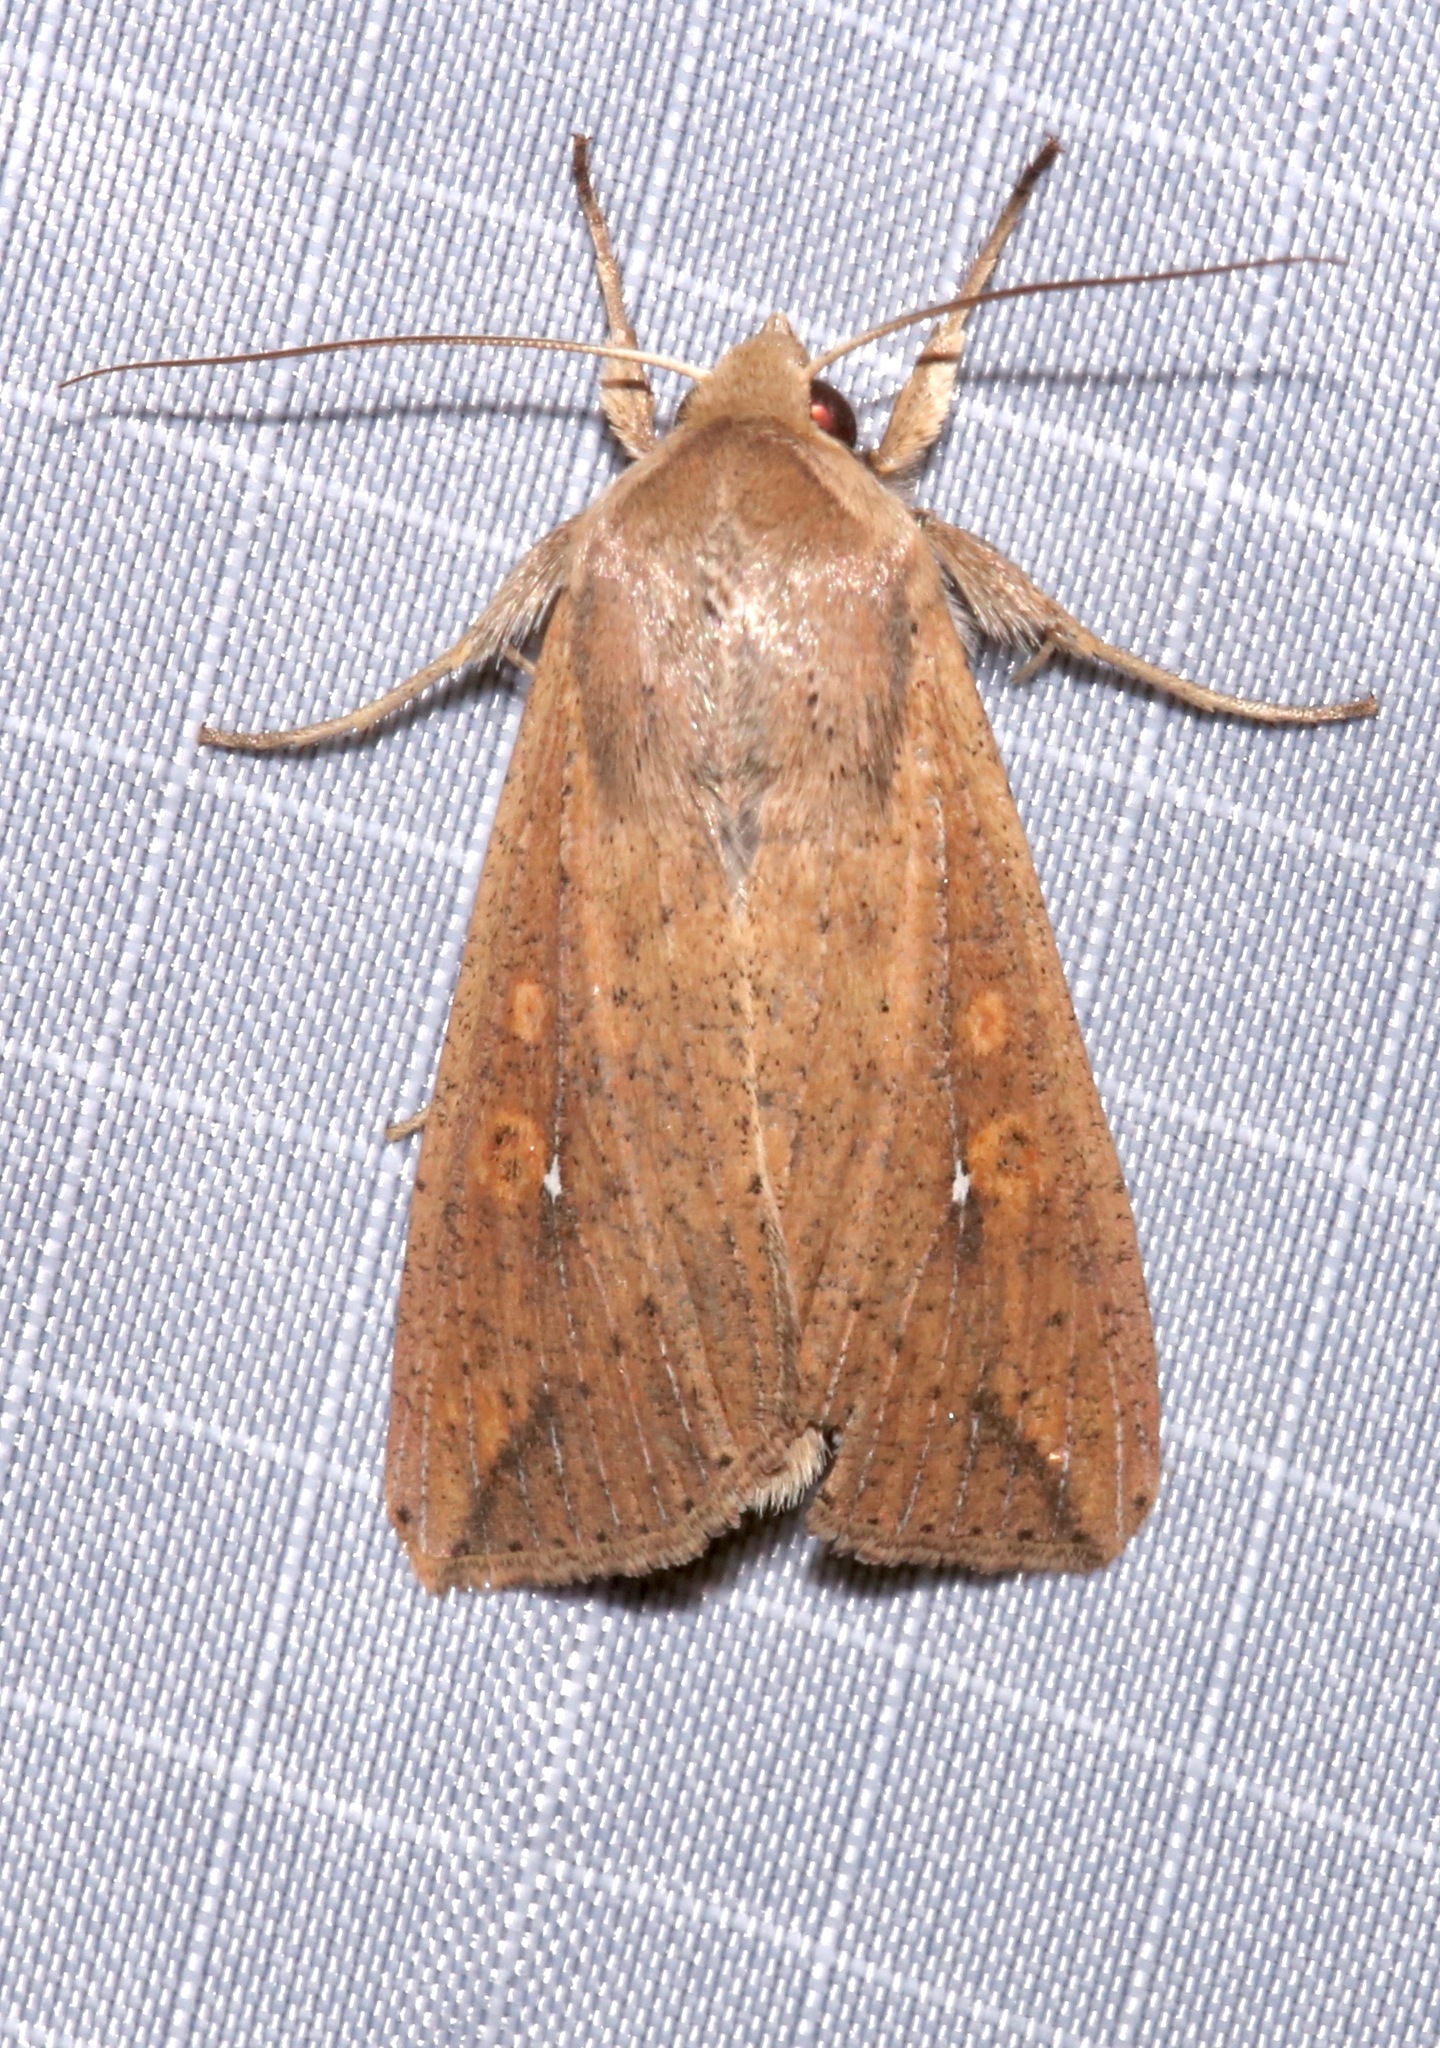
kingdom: Animalia
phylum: Arthropoda
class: Insecta
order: Lepidoptera
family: Noctuidae
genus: Mythimna
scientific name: Mythimna unipuncta
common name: White-speck
